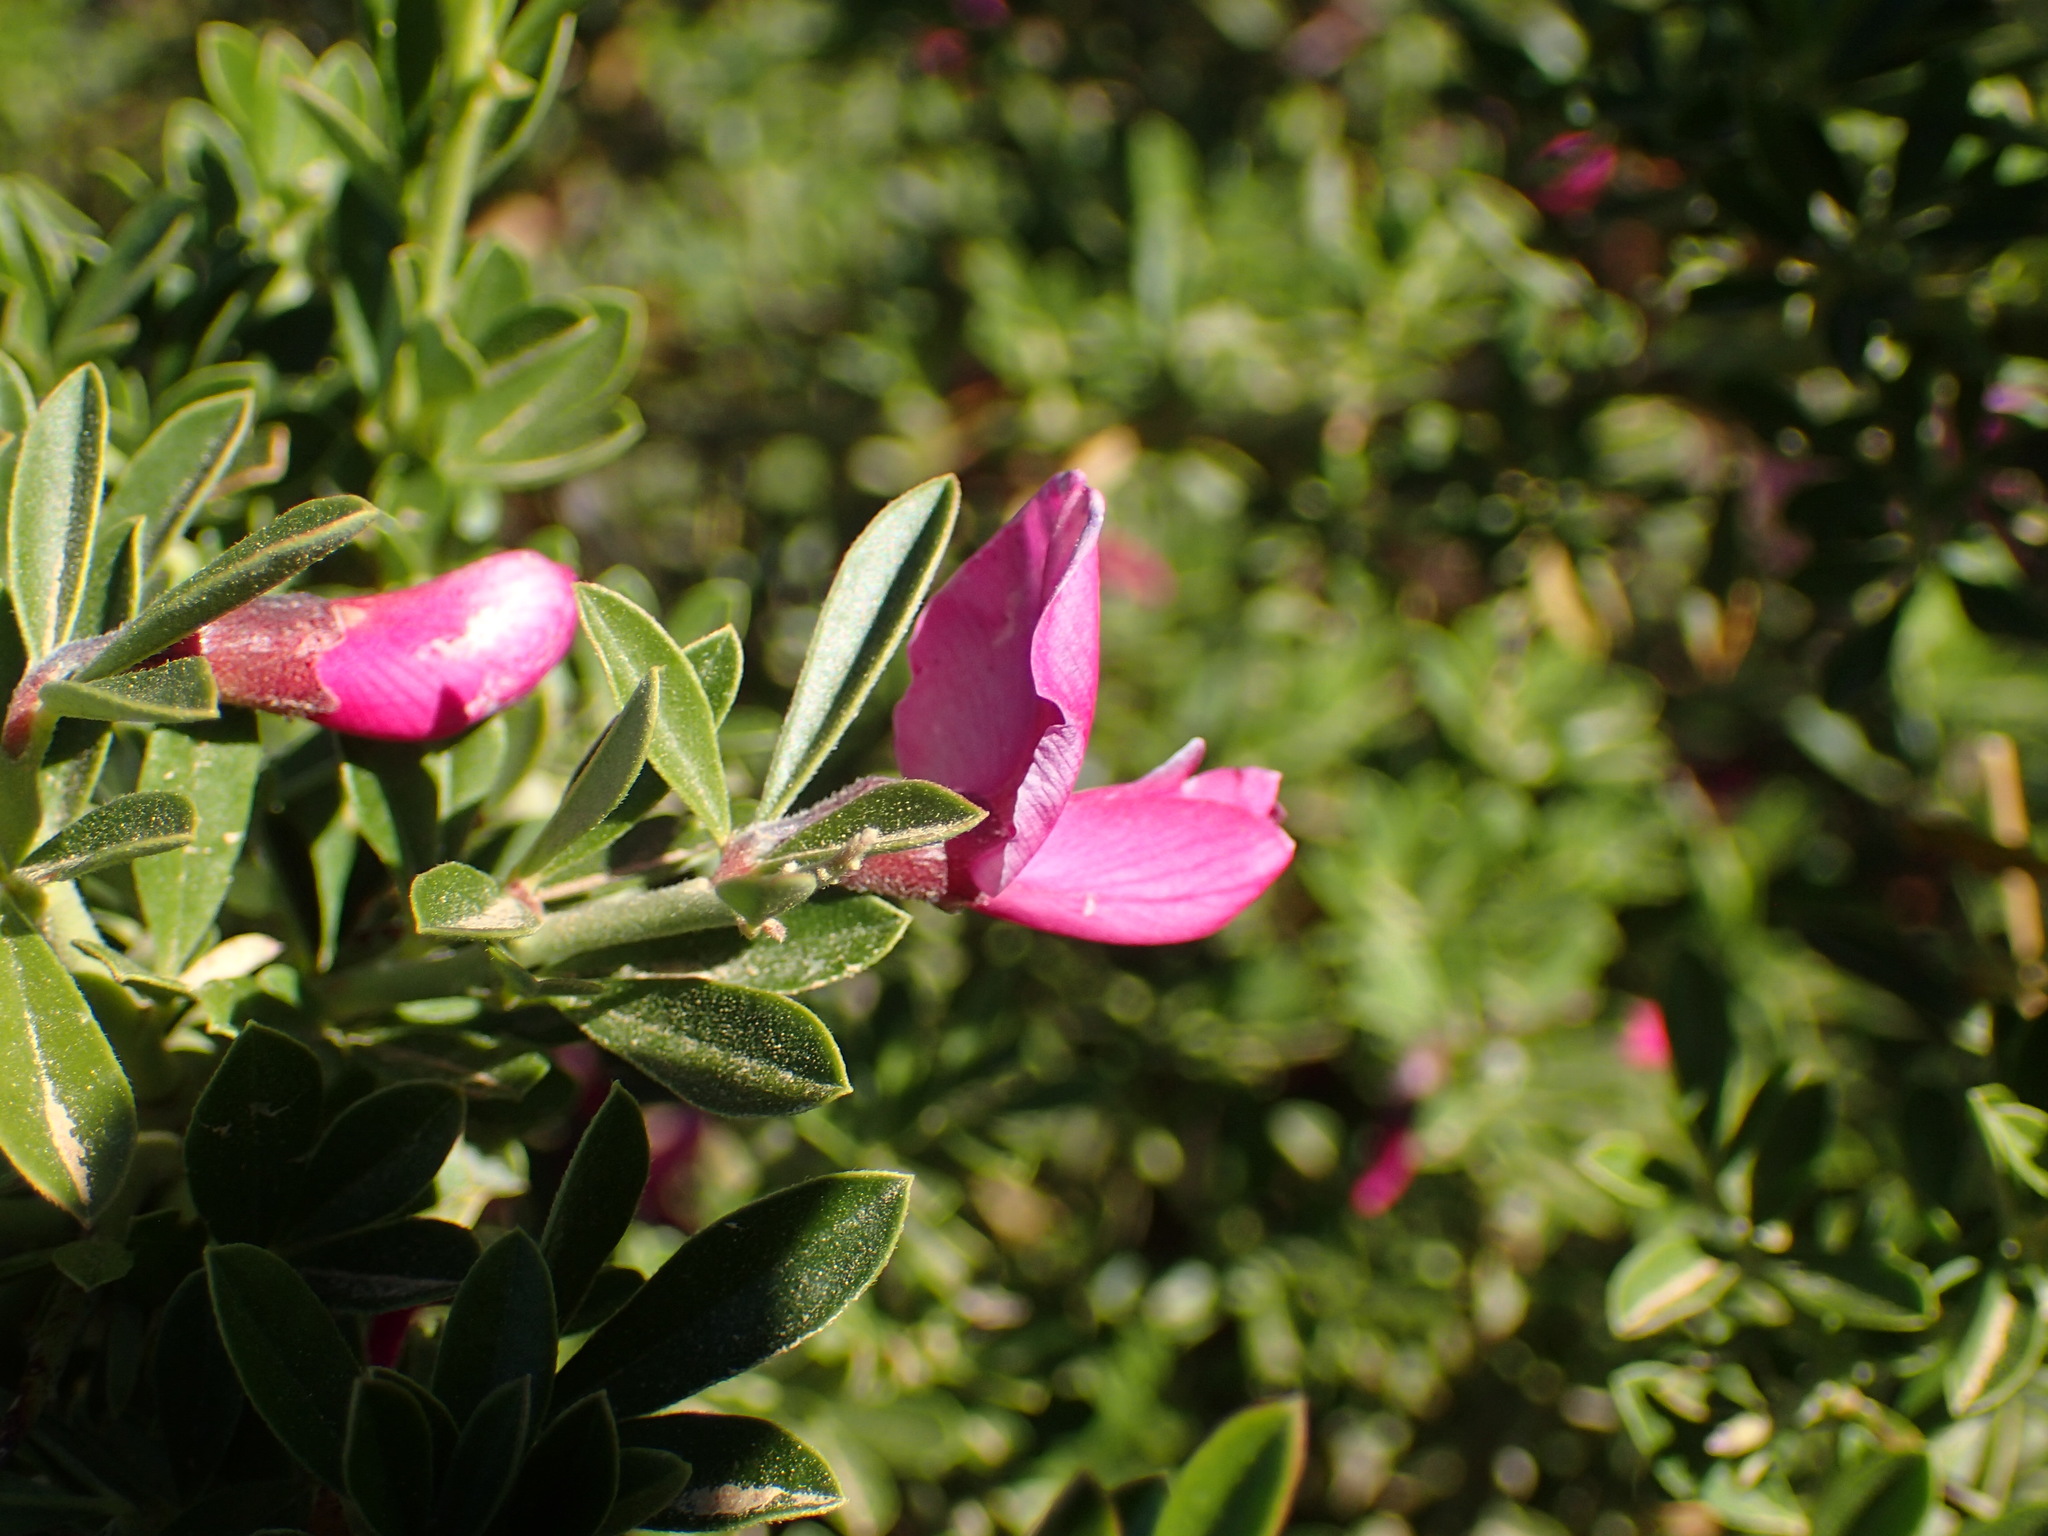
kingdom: Plantae
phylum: Tracheophyta
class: Magnoliopsida
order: Fabales
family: Fabaceae
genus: Pickeringia
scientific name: Pickeringia montana
